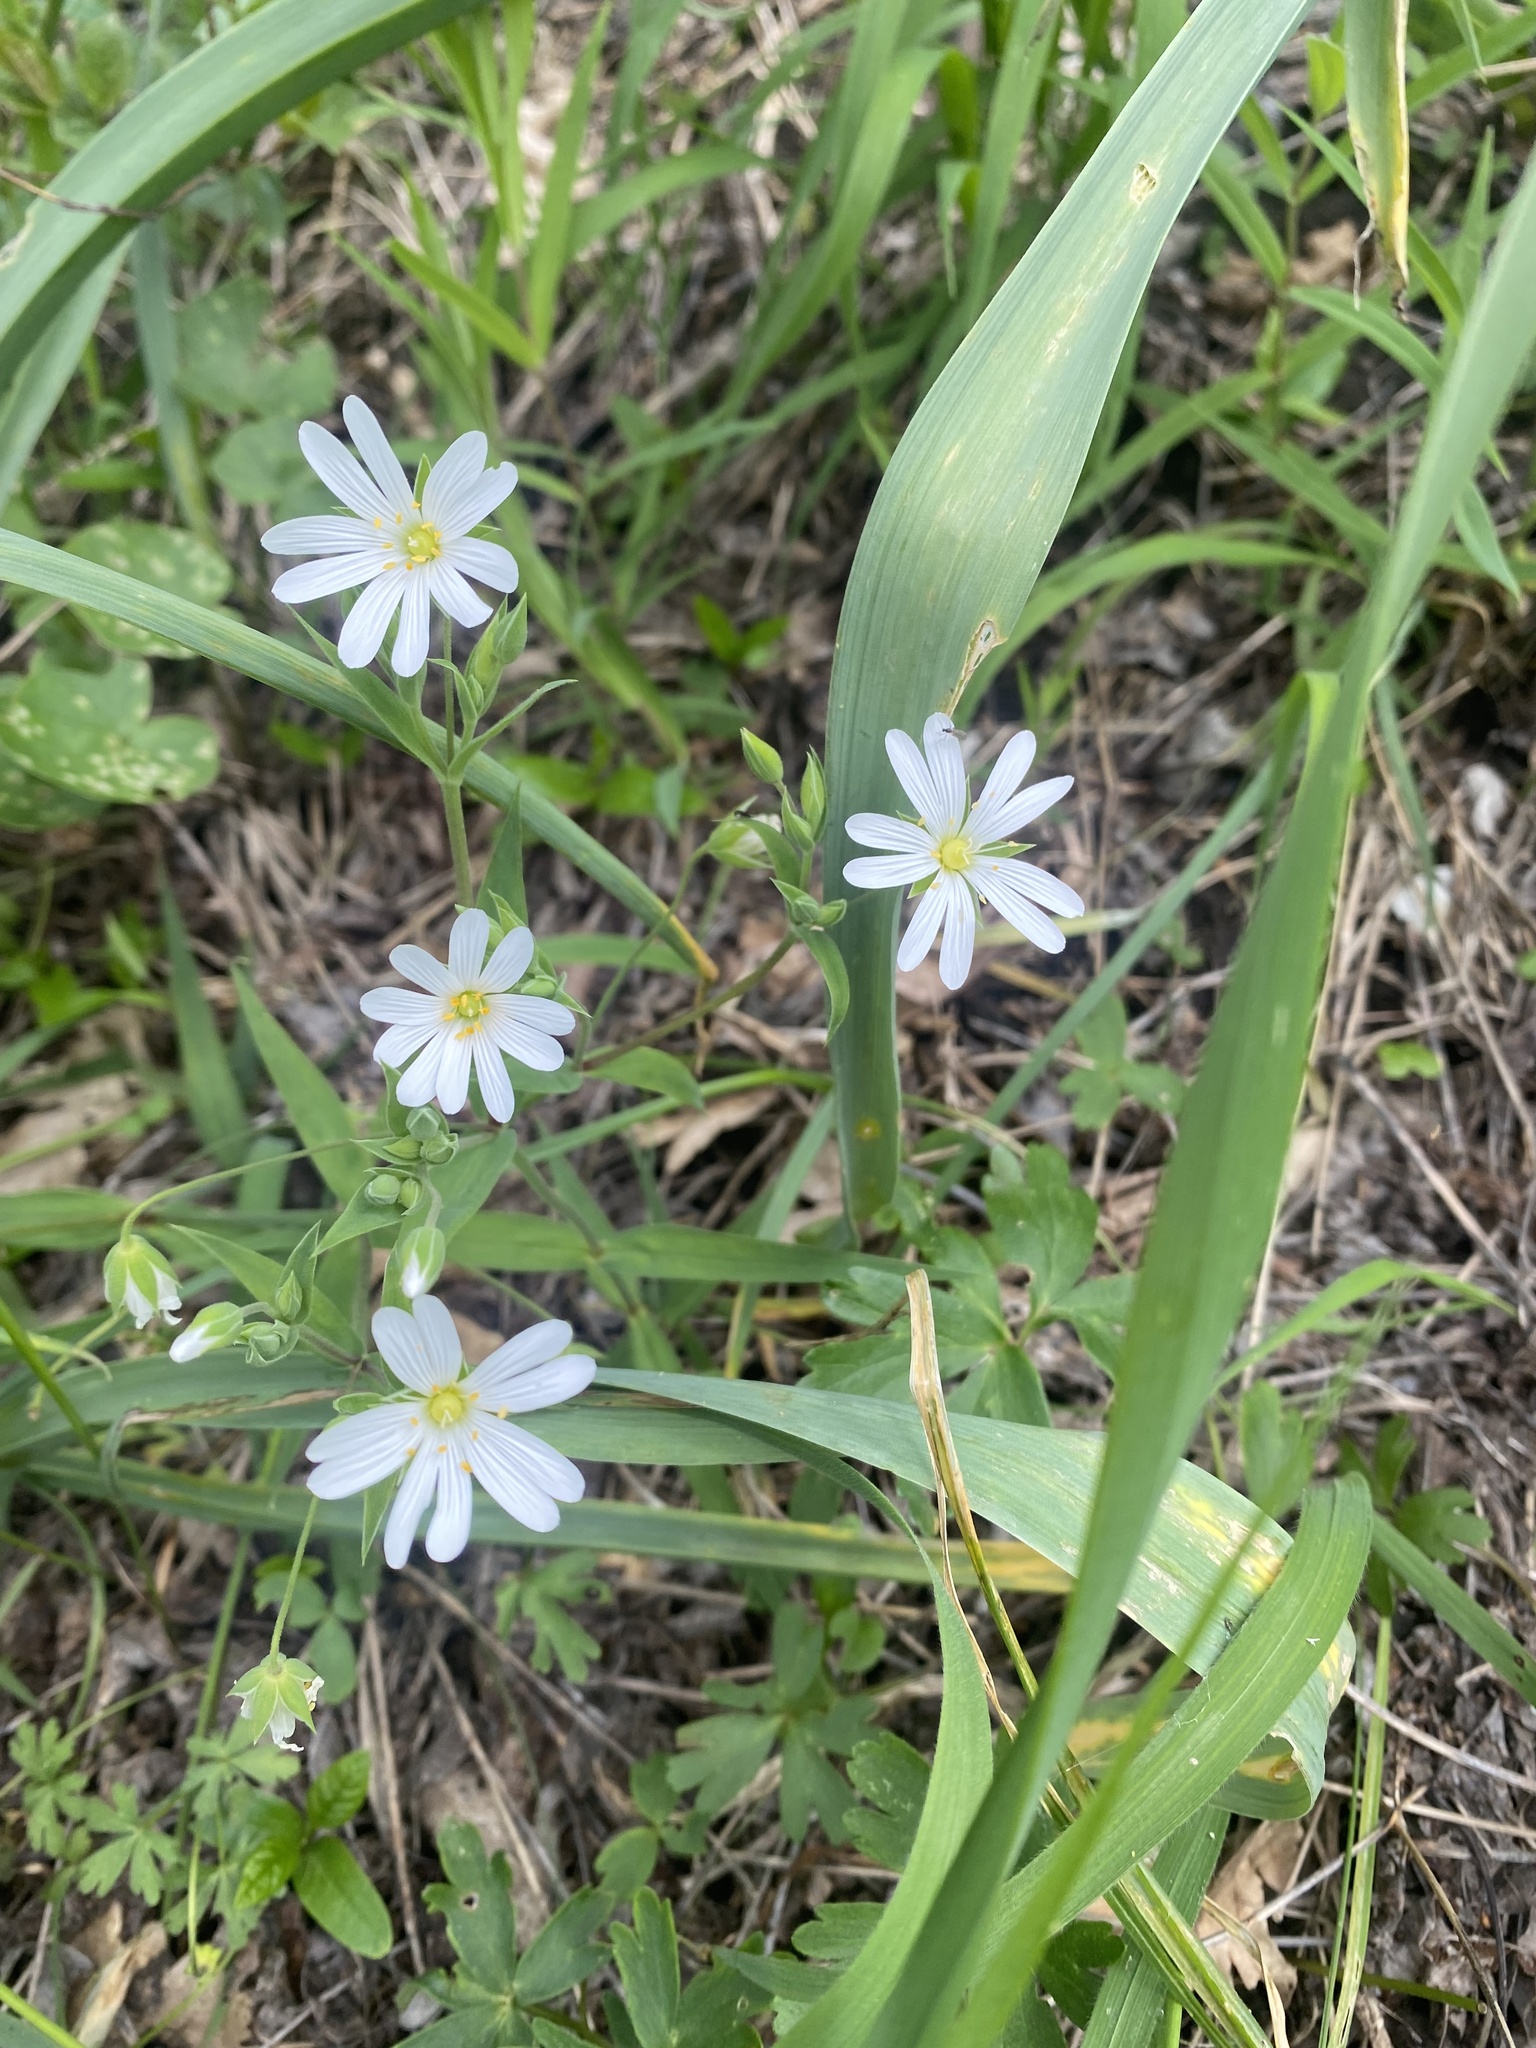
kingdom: Plantae
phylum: Tracheophyta
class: Magnoliopsida
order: Caryophyllales
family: Caryophyllaceae
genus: Rabelera
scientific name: Rabelera holostea
